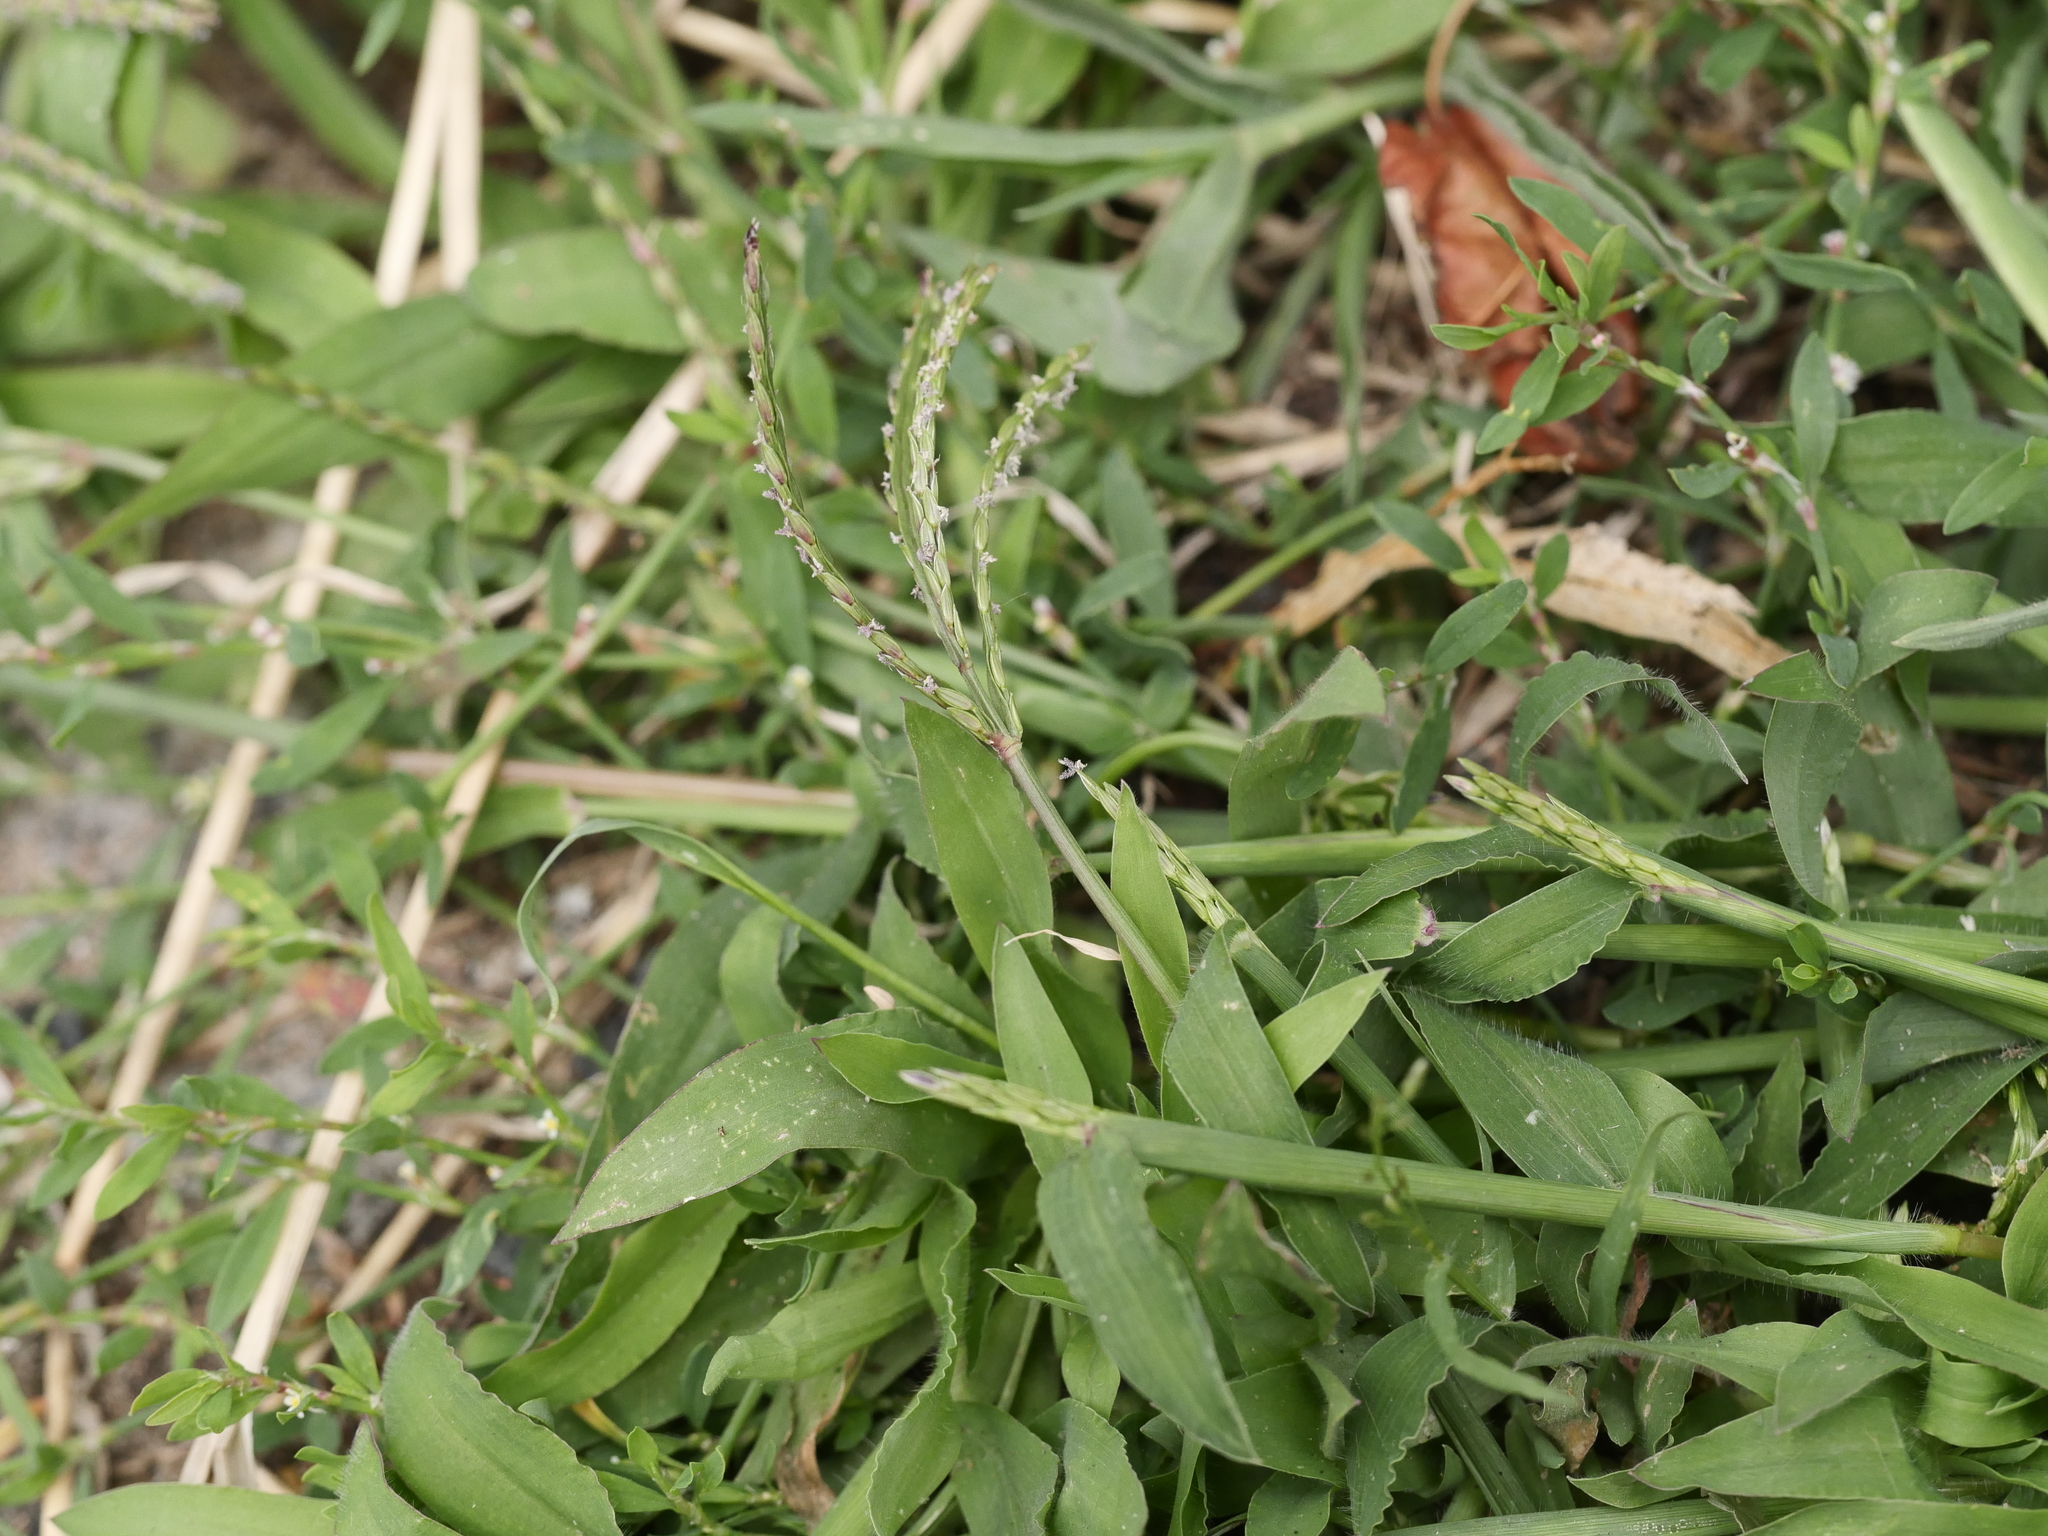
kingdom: Plantae
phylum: Tracheophyta
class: Liliopsida
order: Poales
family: Poaceae
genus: Digitaria
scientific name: Digitaria sanguinalis
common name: Hairy crabgrass
